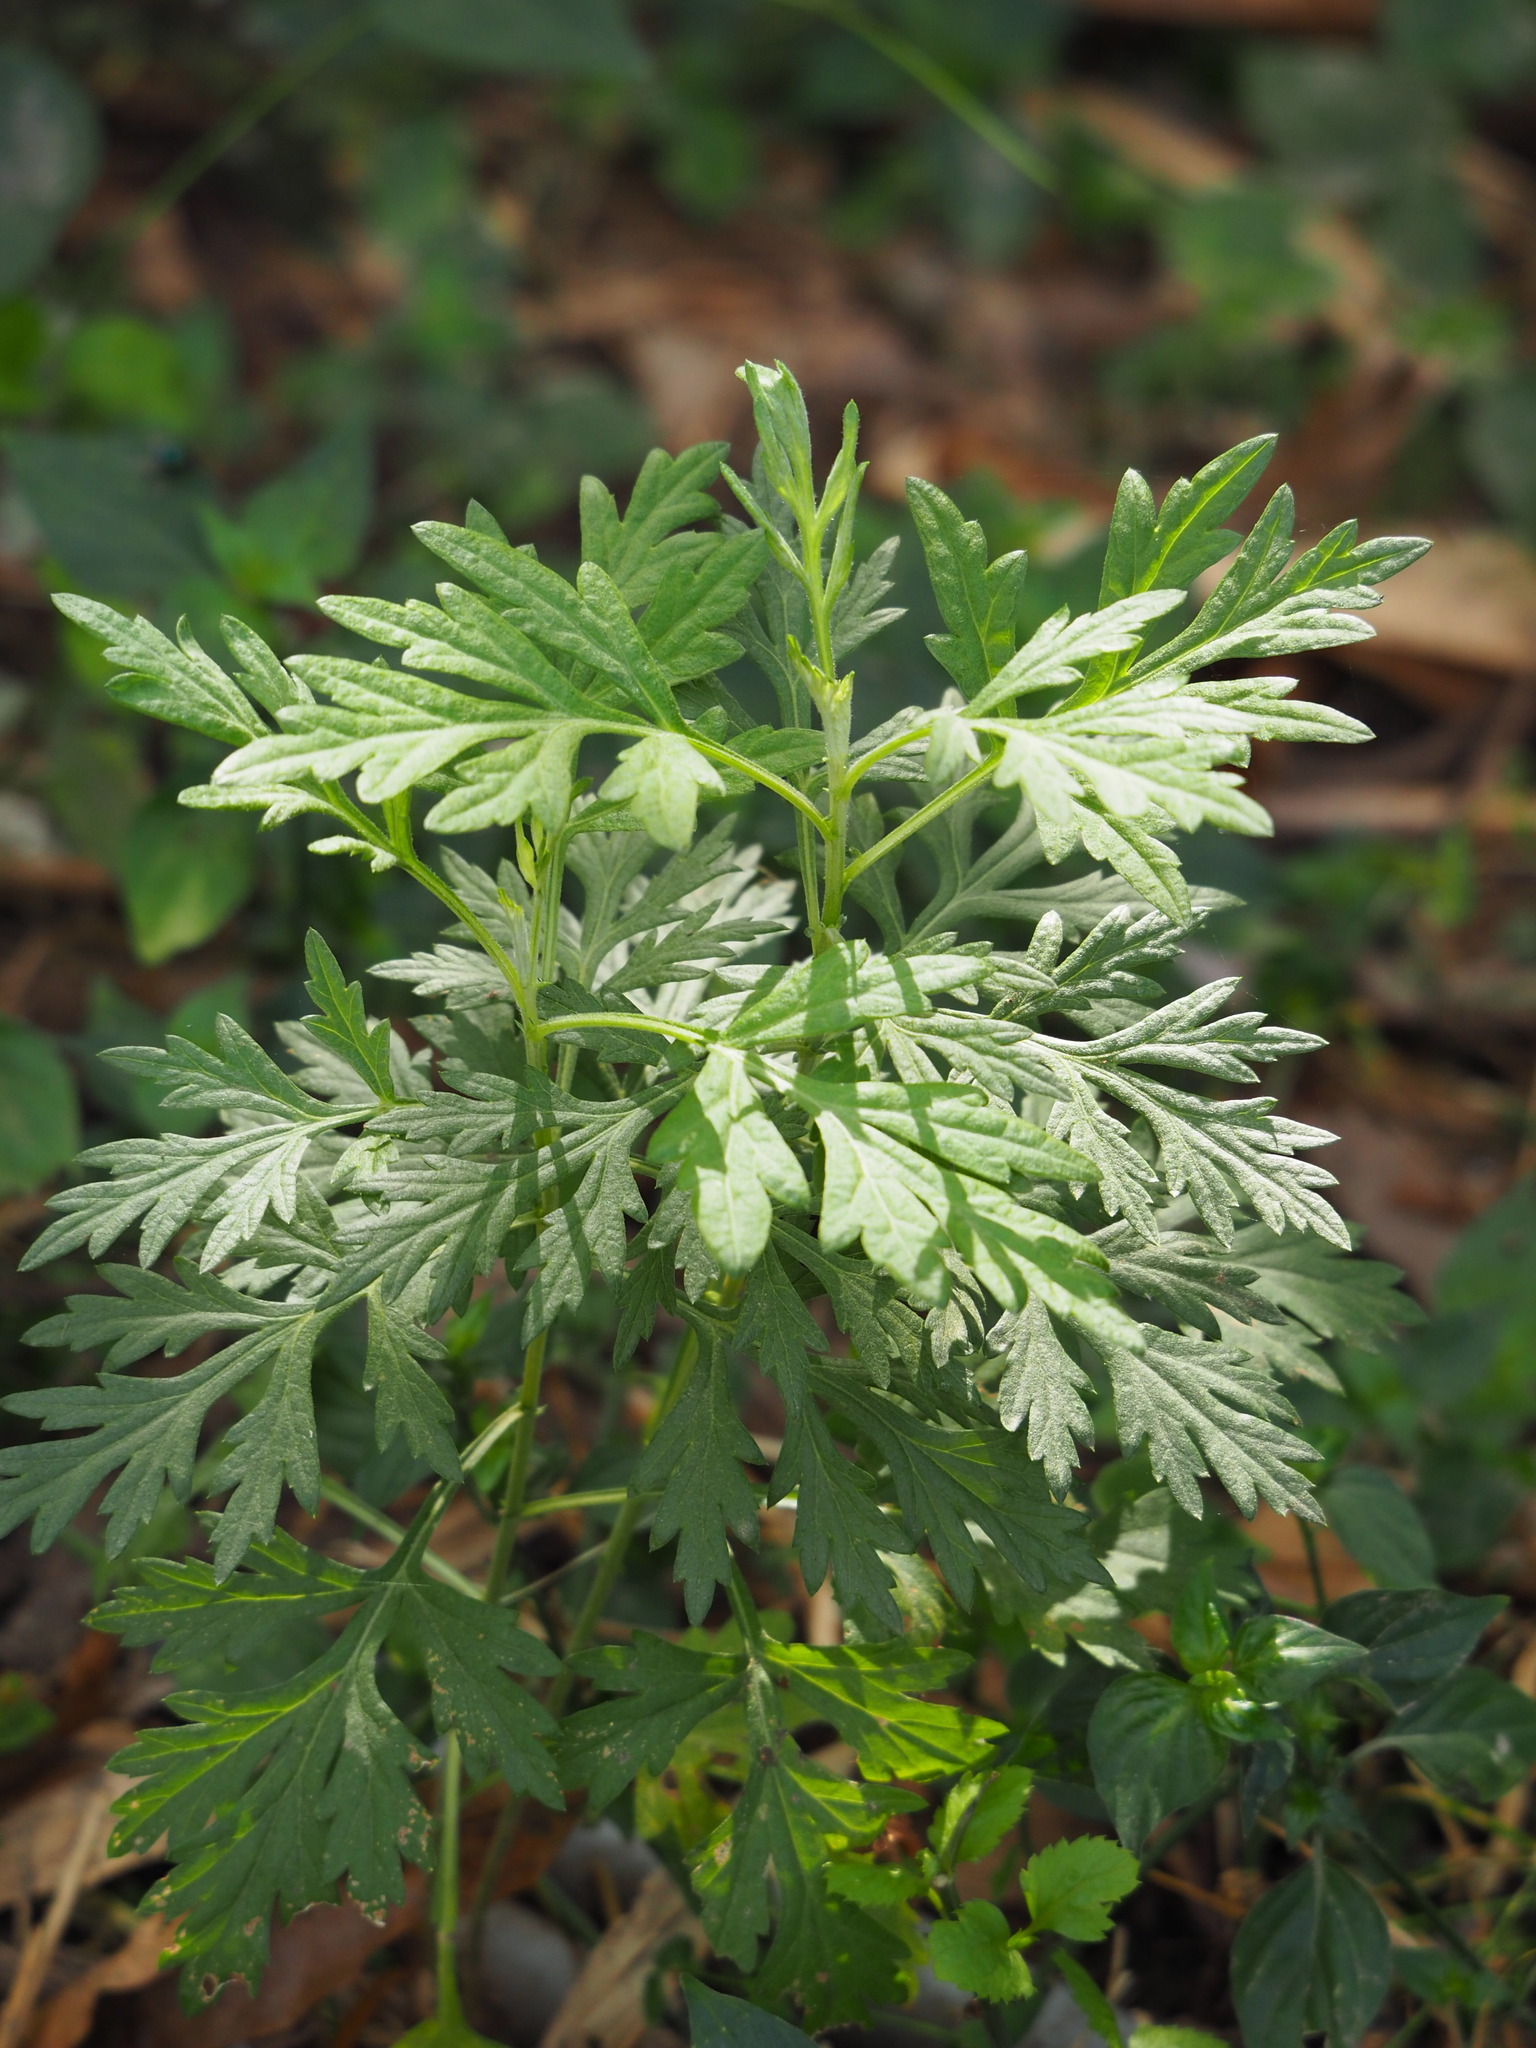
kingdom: Plantae
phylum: Tracheophyta
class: Magnoliopsida
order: Asterales
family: Asteraceae
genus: Artemisia
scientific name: Artemisia indica
